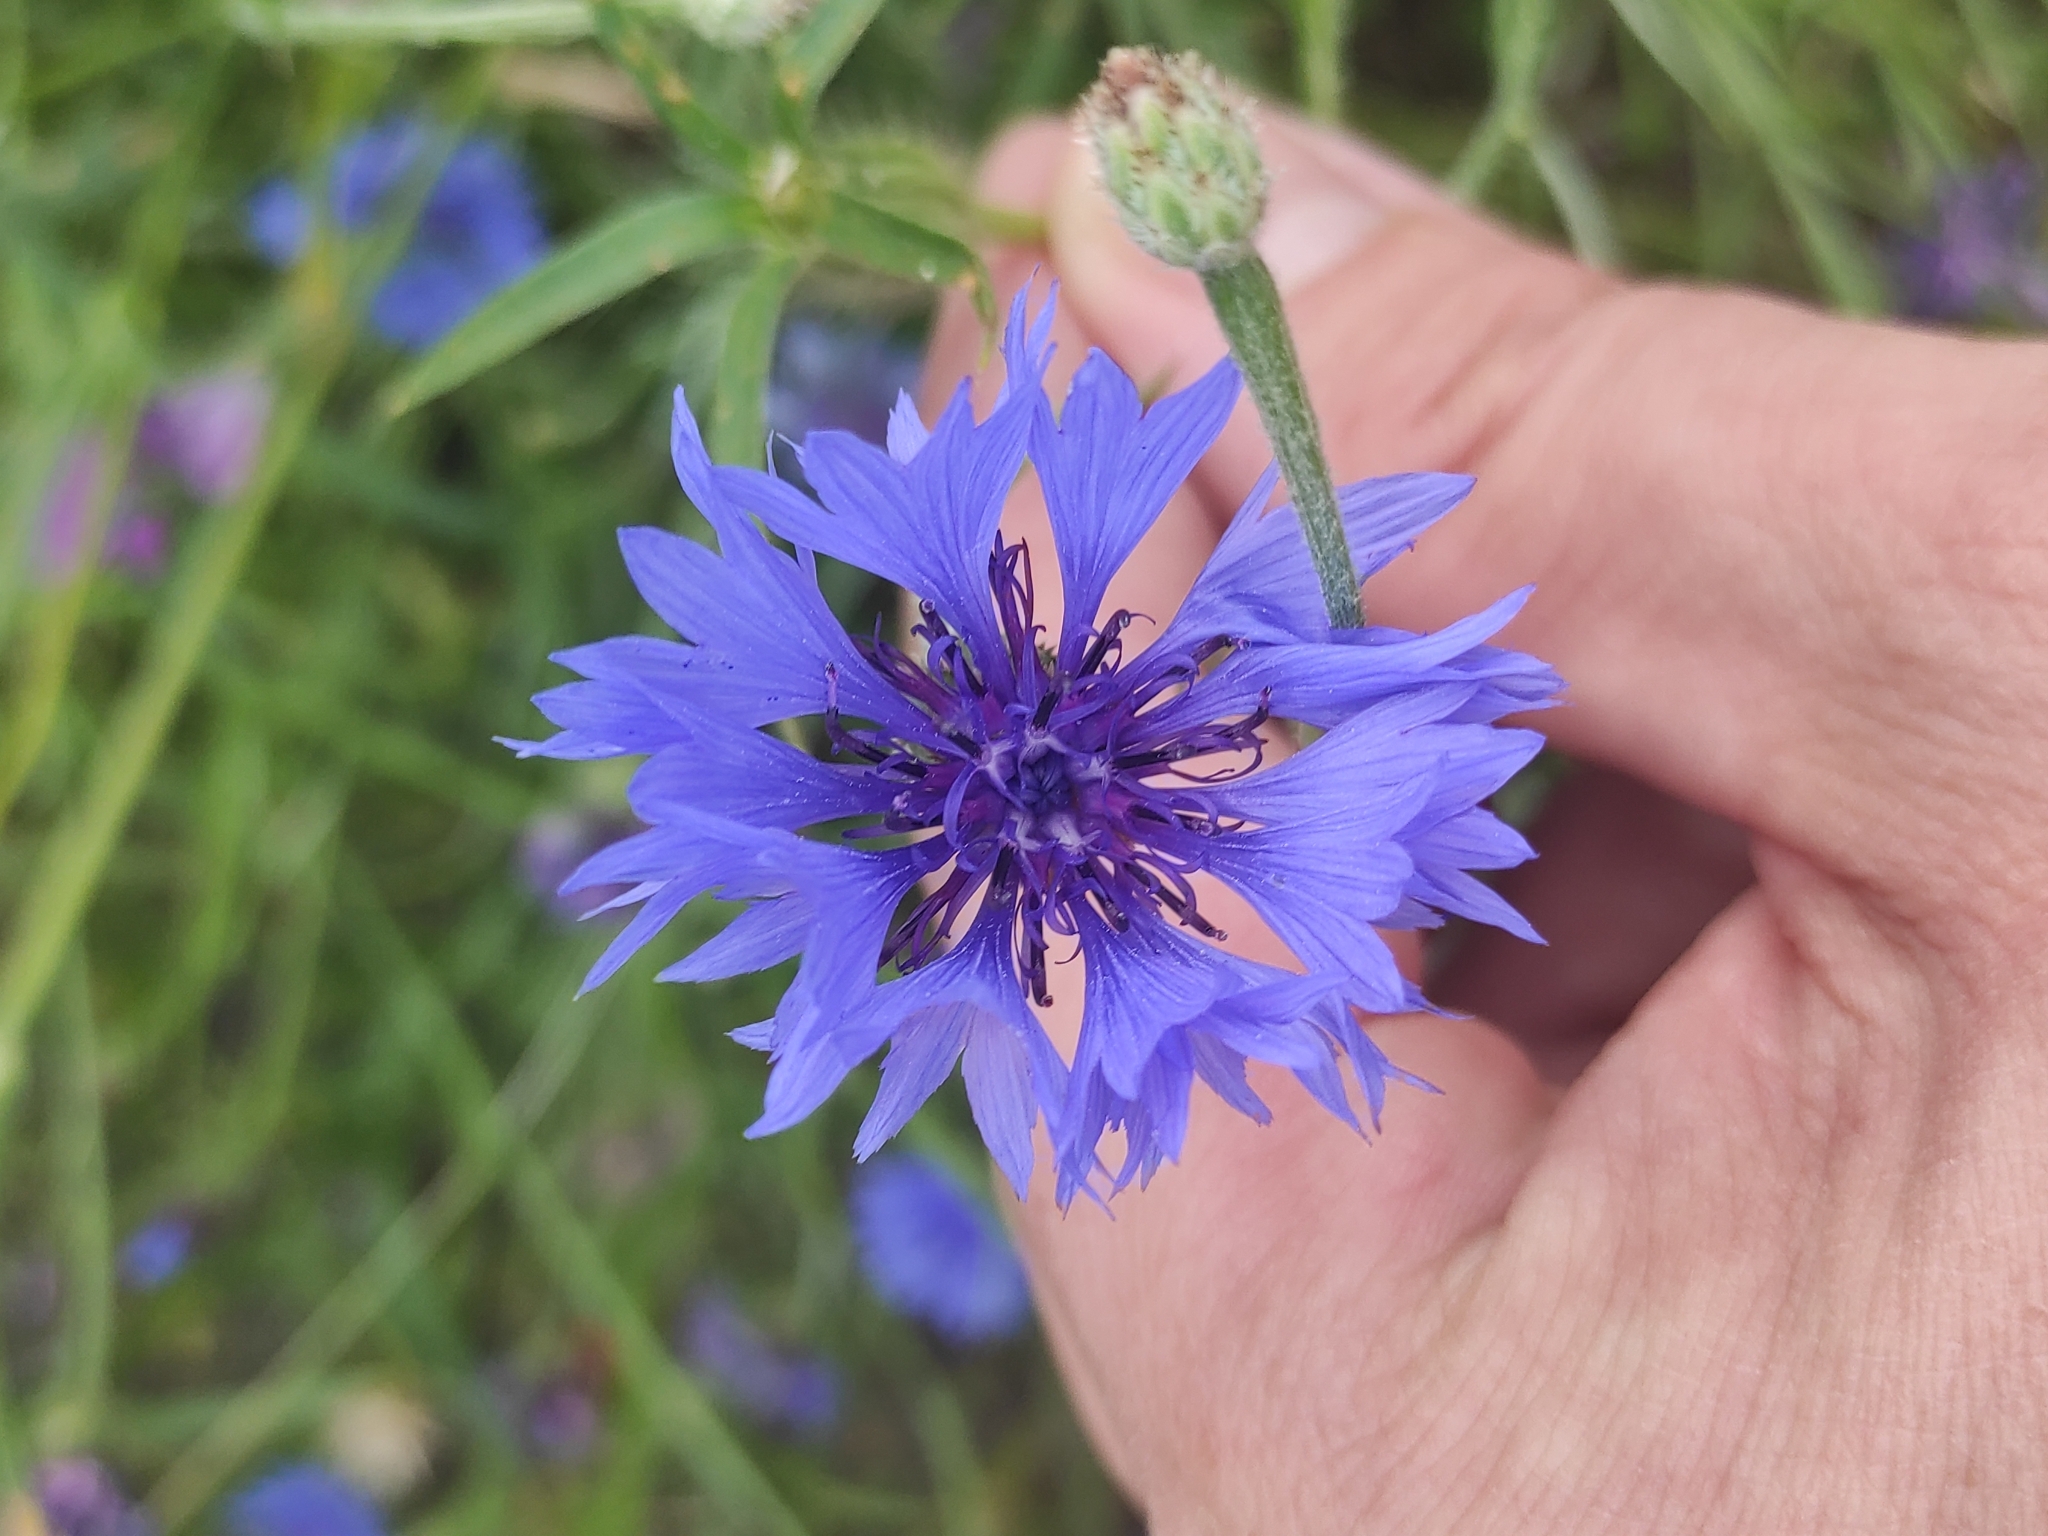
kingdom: Plantae
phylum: Tracheophyta
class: Magnoliopsida
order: Asterales
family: Asteraceae
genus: Centaurea
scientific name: Centaurea cyanus
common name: Cornflower
